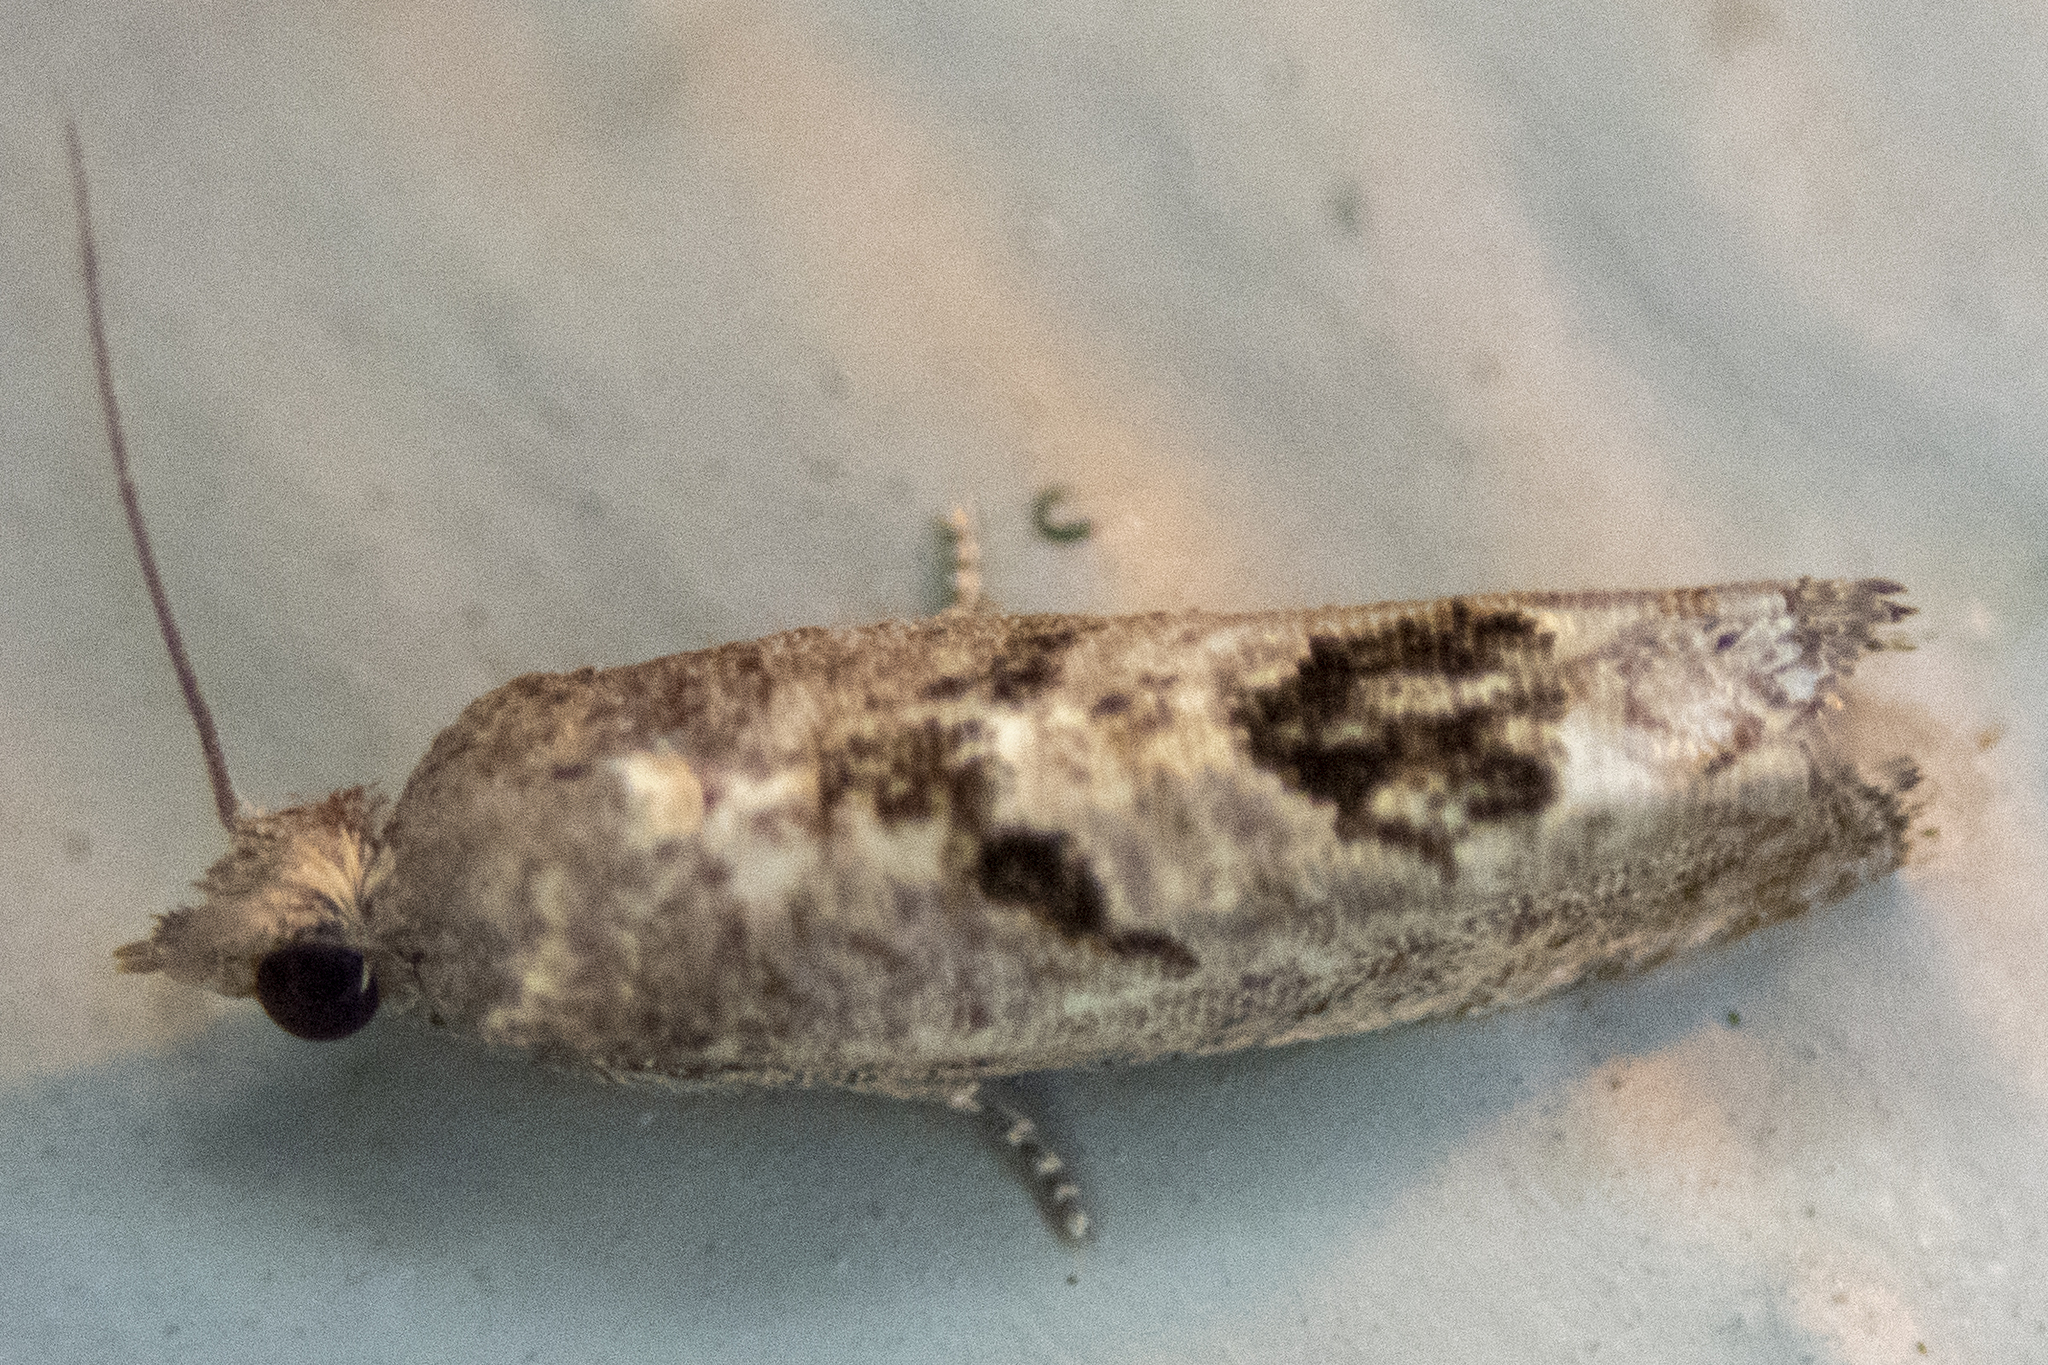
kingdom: Animalia
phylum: Arthropoda
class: Insecta
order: Lepidoptera
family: Tortricidae
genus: Eucosma
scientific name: Eucosma tomonana
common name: Aster-head eucosma moth
